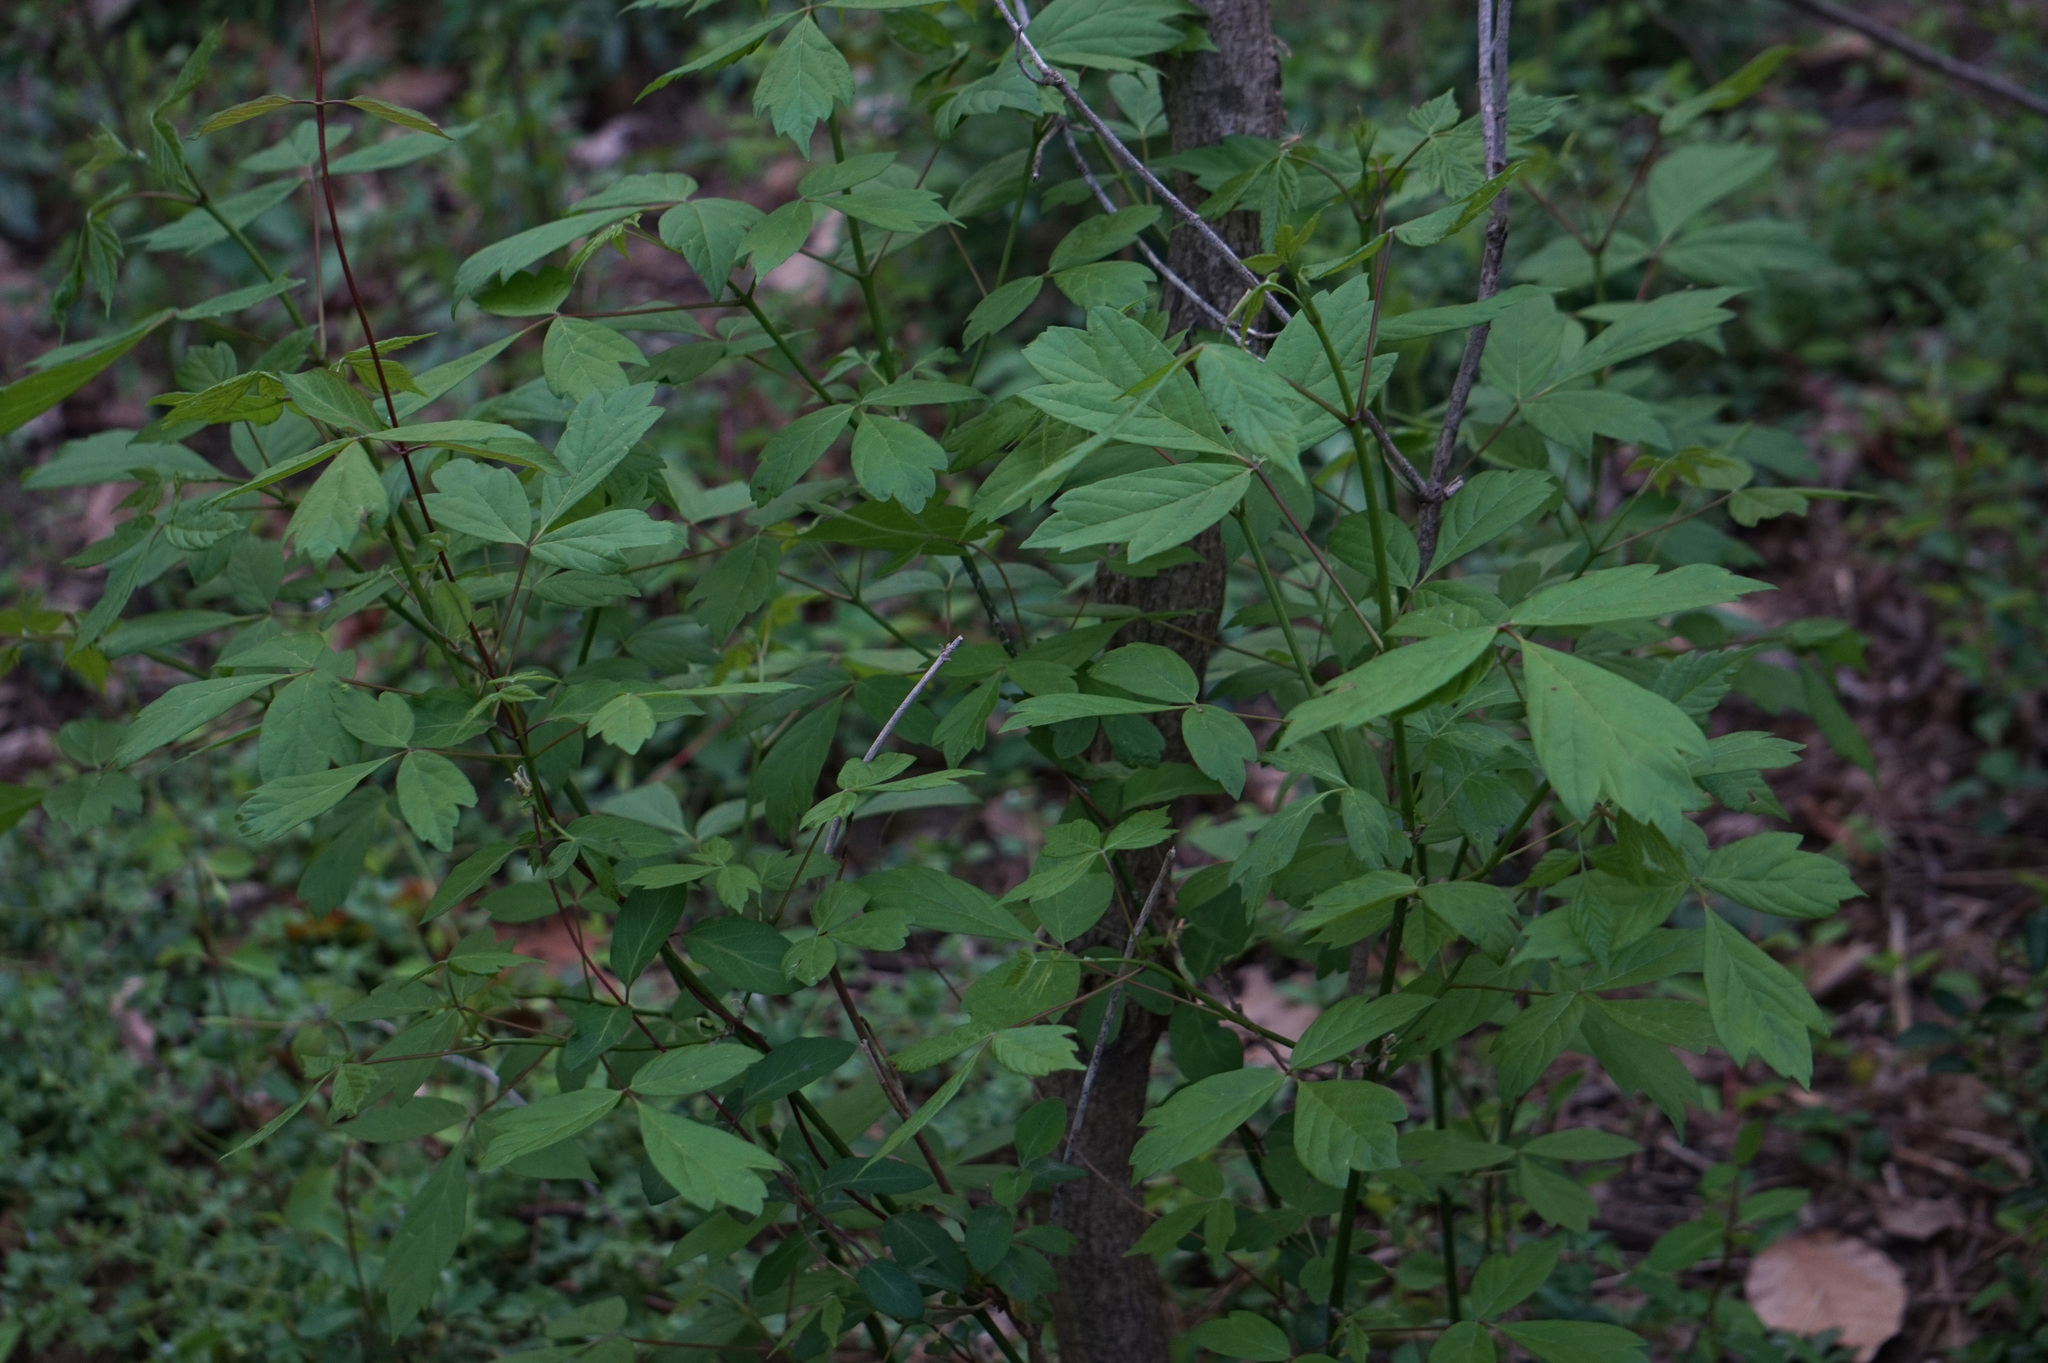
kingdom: Plantae
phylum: Tracheophyta
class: Magnoliopsida
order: Sapindales
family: Sapindaceae
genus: Acer
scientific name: Acer negundo
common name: Ashleaf maple
